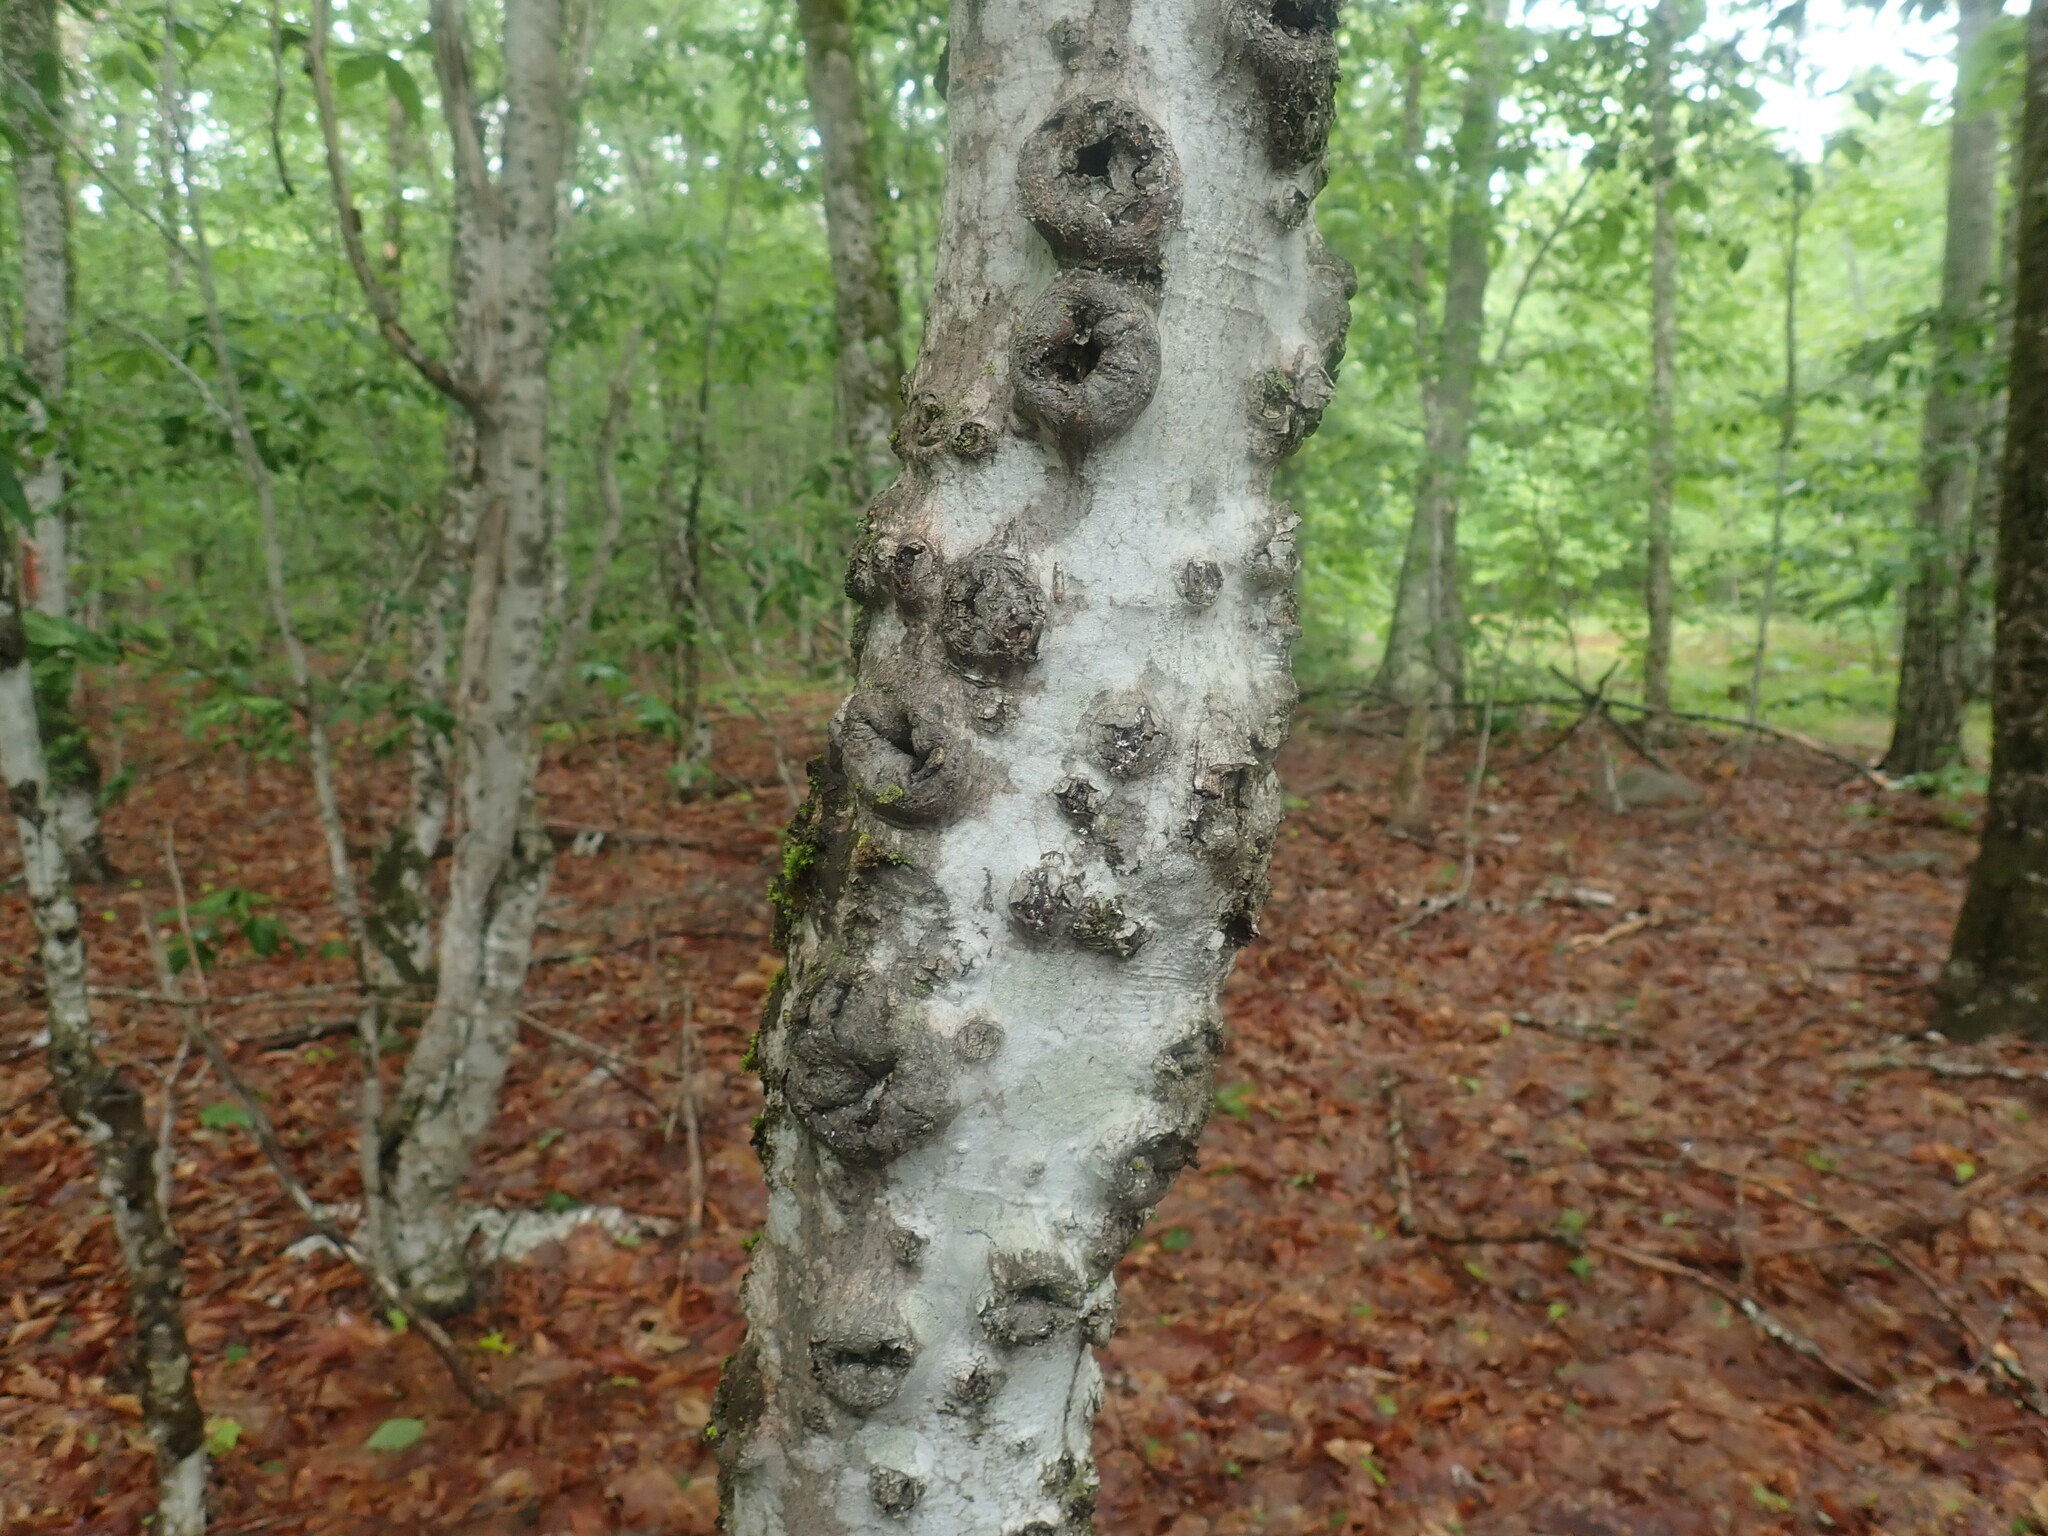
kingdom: Fungi
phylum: Ascomycota
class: Sordariomycetes
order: Hypocreales
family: Nectriaceae
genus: Neonectria
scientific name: Neonectria faginata
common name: Beech bark canker
